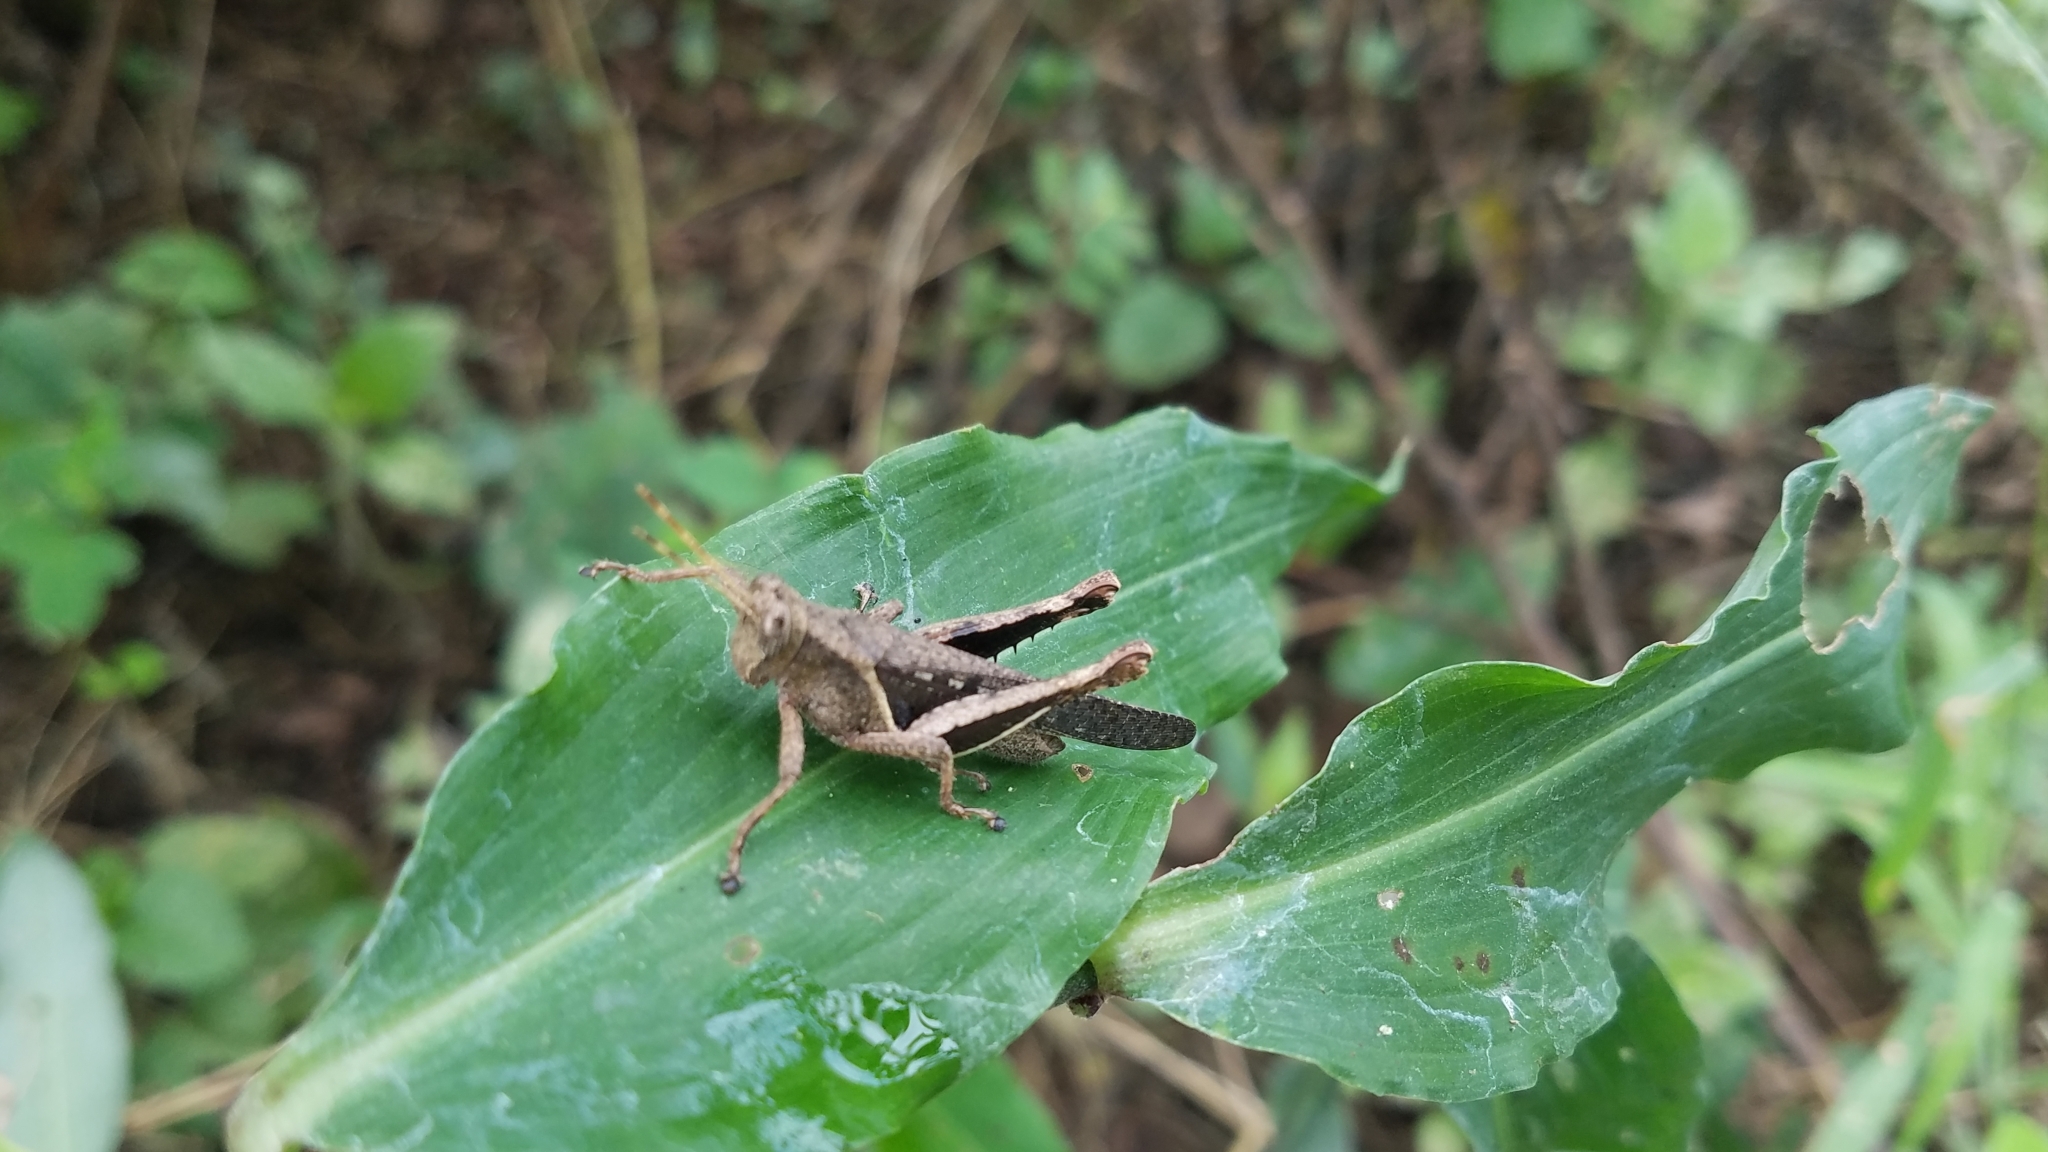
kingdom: Animalia
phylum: Arthropoda
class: Insecta
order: Orthoptera
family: Acrididae
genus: Abracris
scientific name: Abracris flavolineata
